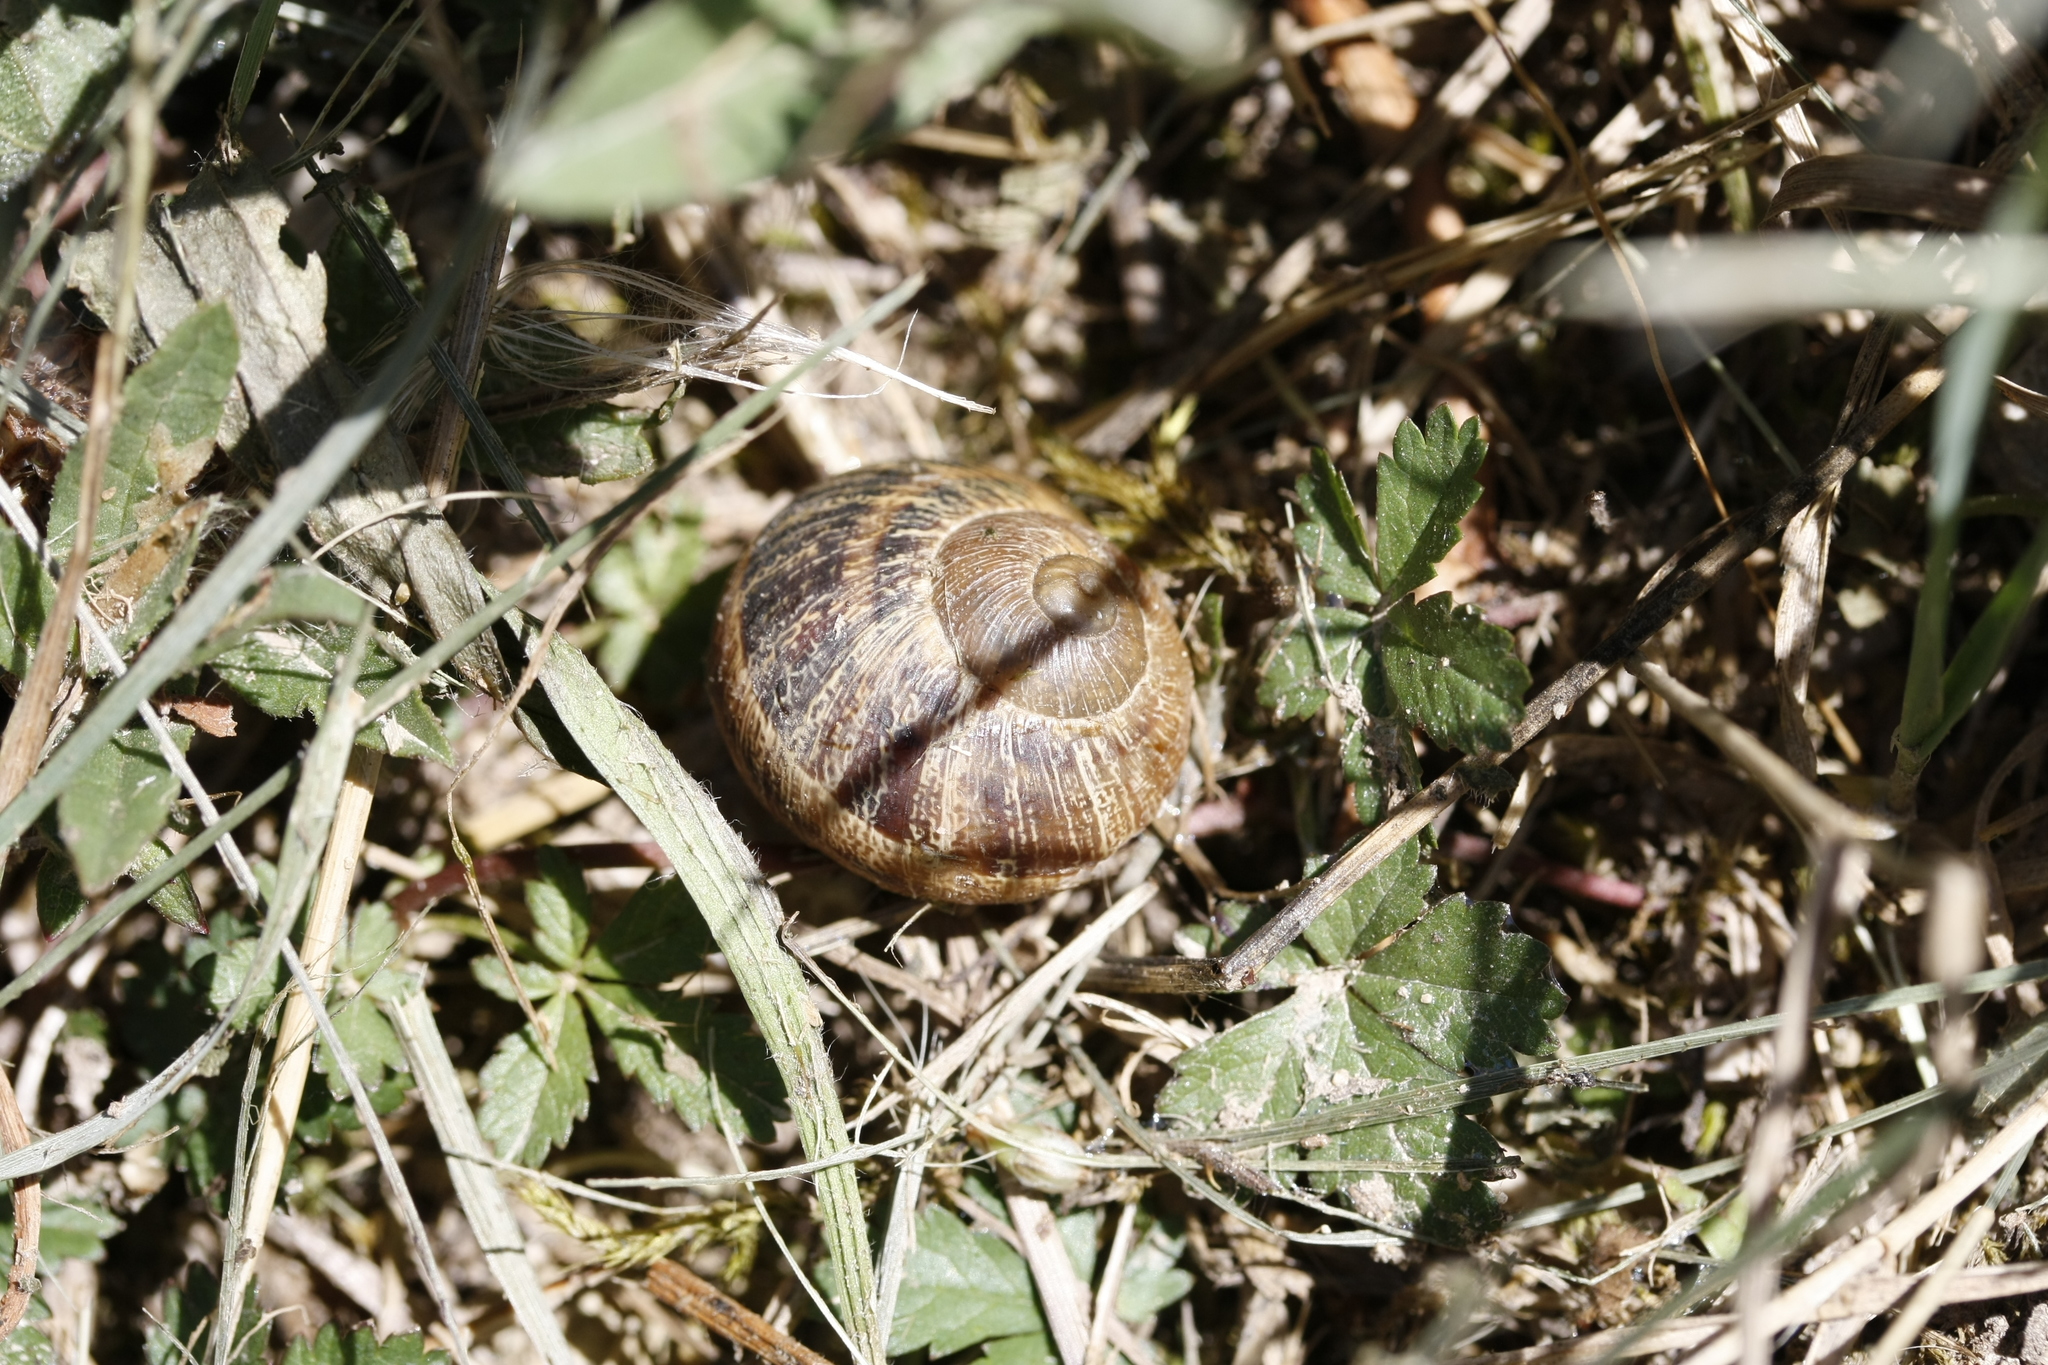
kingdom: Animalia
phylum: Mollusca
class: Gastropoda
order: Stylommatophora
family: Helicidae
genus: Cornu
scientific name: Cornu aspersum
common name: Brown garden snail
